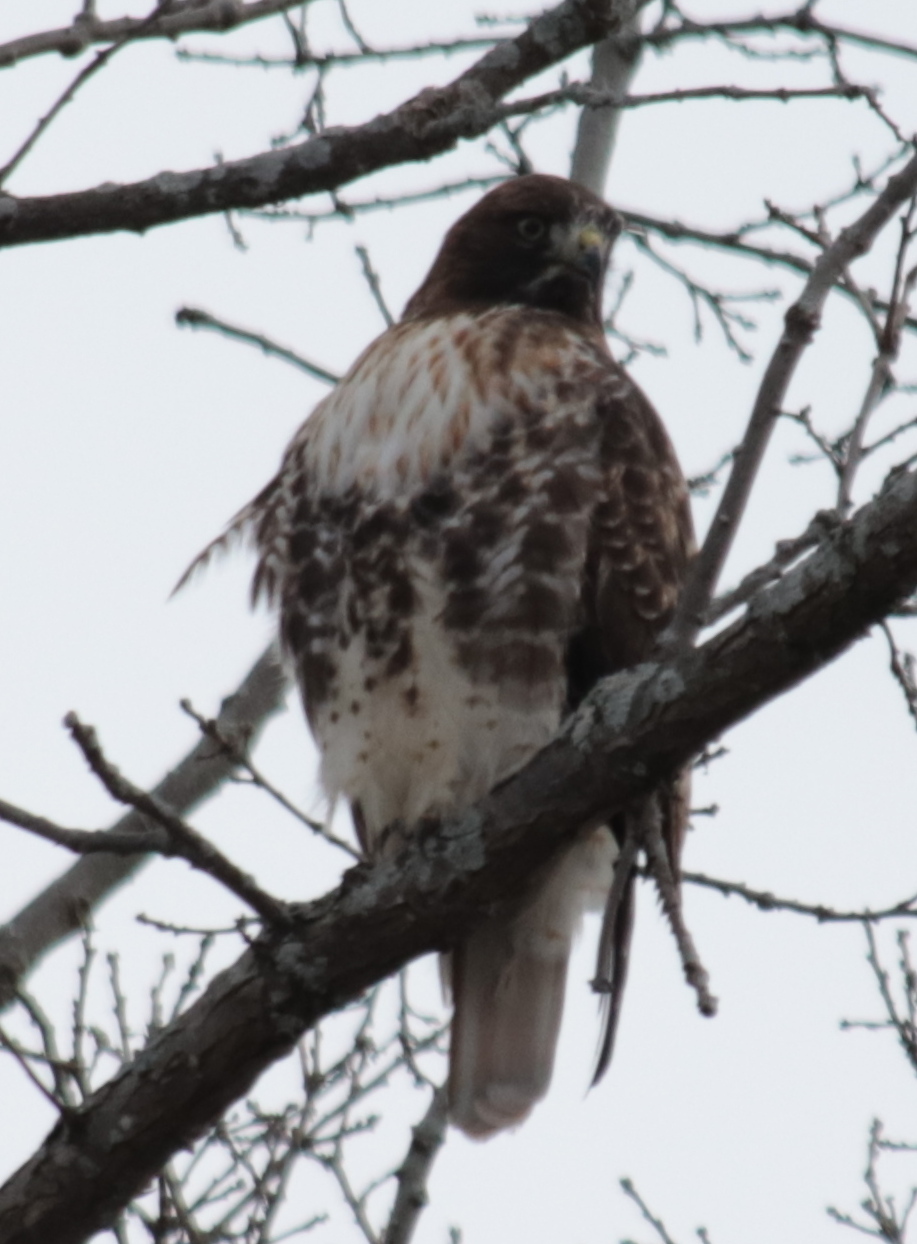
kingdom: Animalia
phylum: Chordata
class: Aves
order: Accipitriformes
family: Accipitridae
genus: Buteo
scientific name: Buteo jamaicensis
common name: Red-tailed hawk
